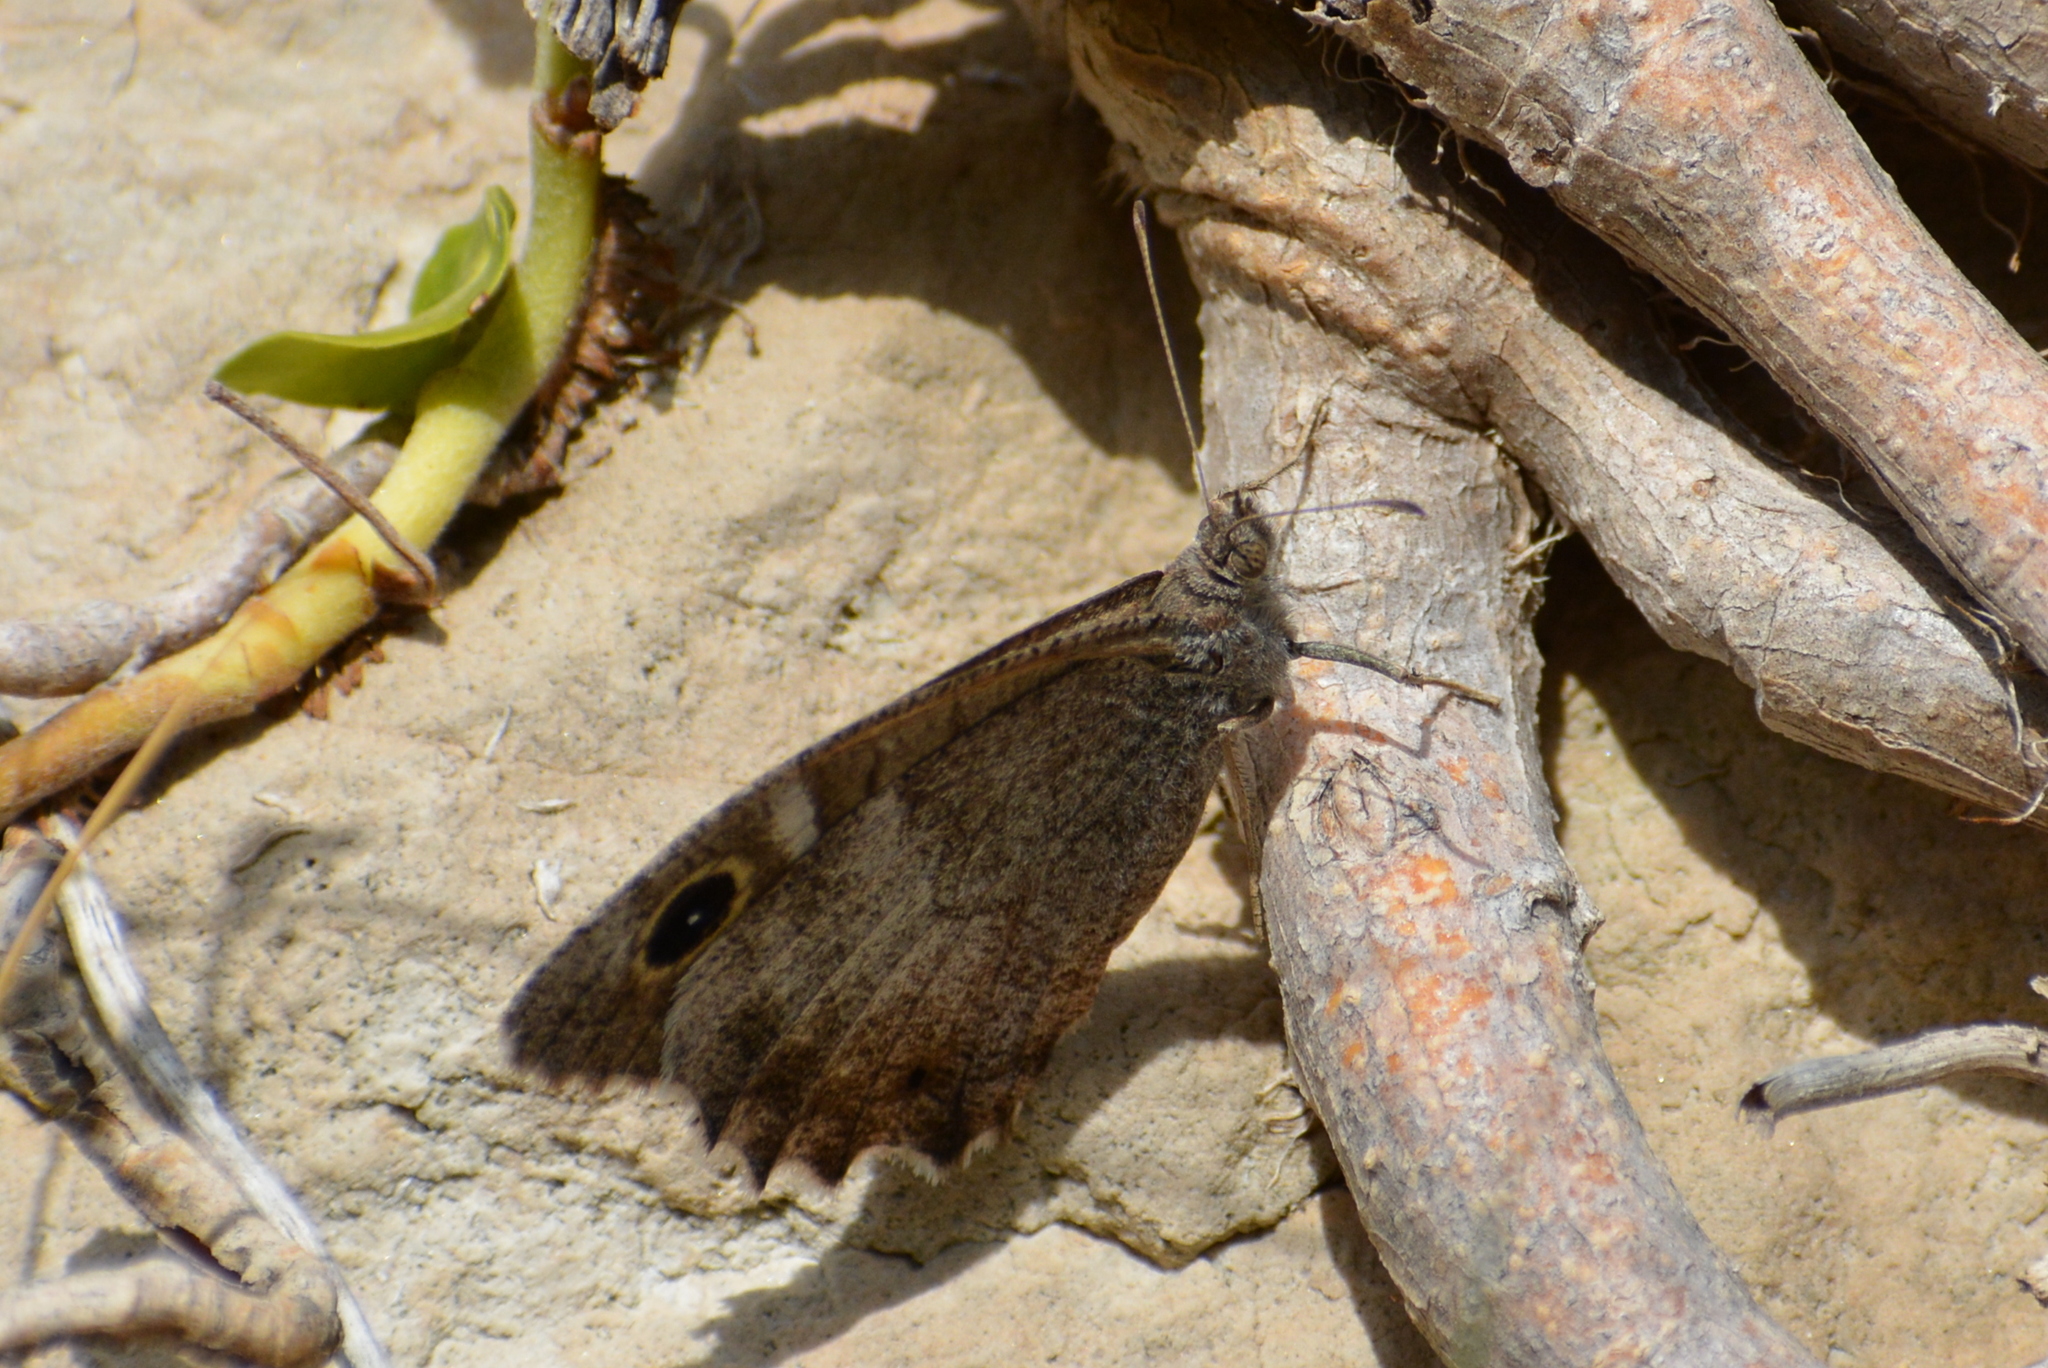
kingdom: Animalia
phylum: Arthropoda
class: Insecta
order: Lepidoptera
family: Nymphalidae
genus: Hipparchia
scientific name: Hipparchia statilinus
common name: Tree grayling
